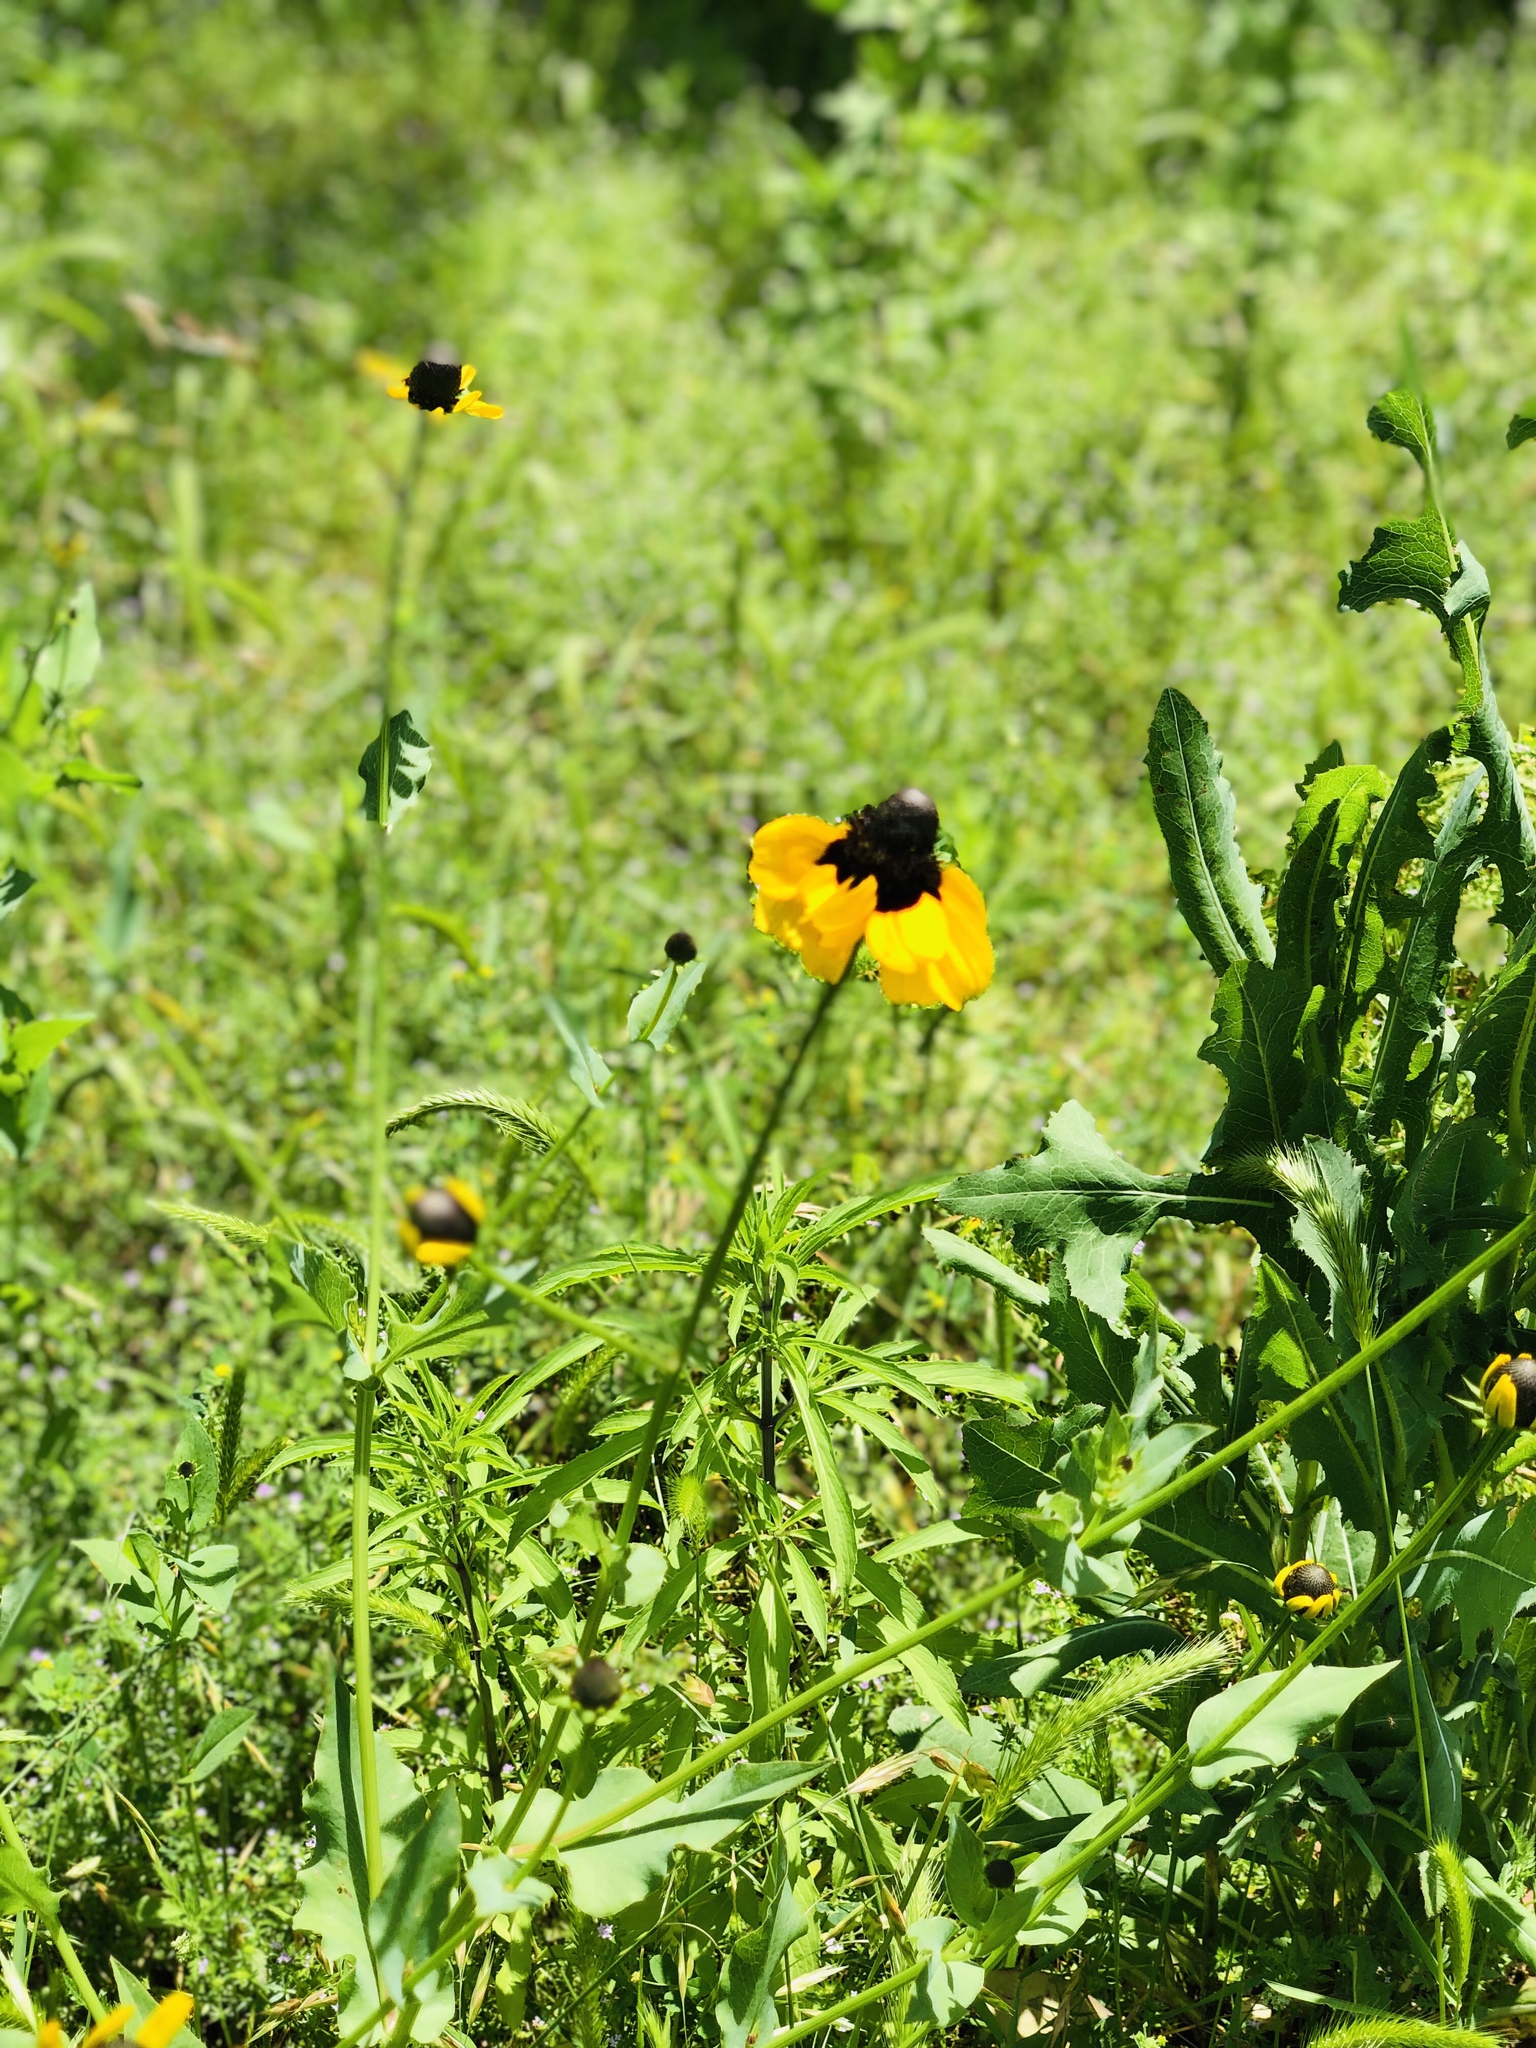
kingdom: Plantae
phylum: Tracheophyta
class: Magnoliopsida
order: Asterales
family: Asteraceae
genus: Rudbeckia
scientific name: Rudbeckia amplexicaulis
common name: Clasping-leaf coneflower
